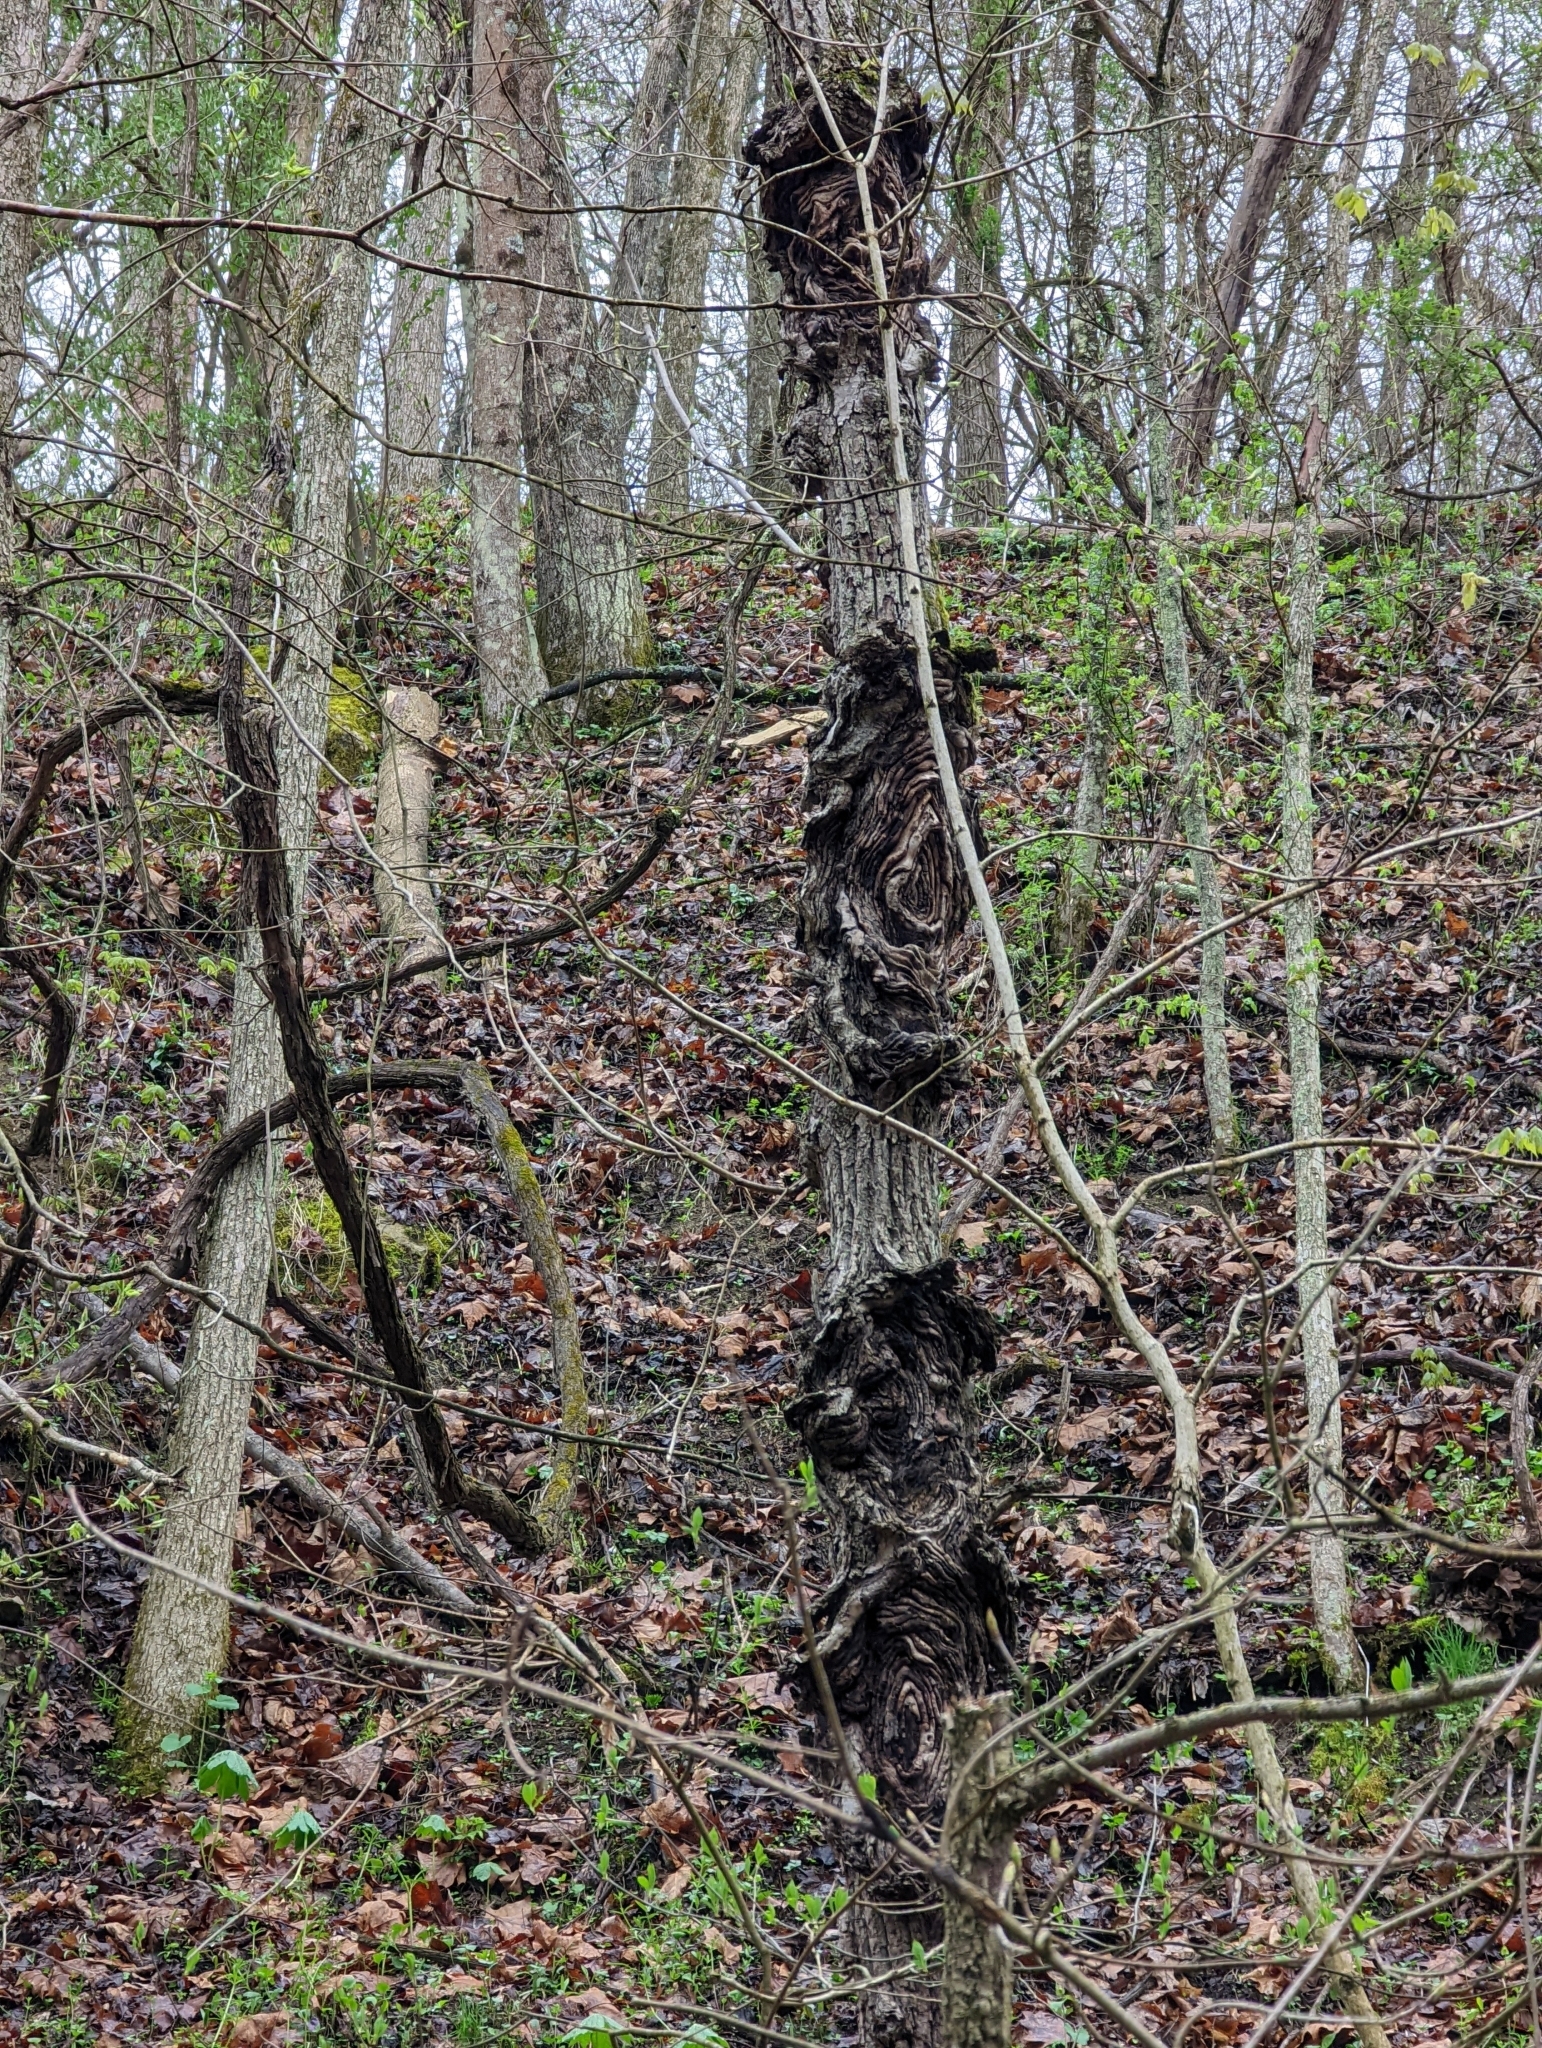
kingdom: Fungi
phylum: Ascomycota
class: Sordariomycetes
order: Hypocreales
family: Nectriaceae
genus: Neonectria
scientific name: Neonectria ditissima
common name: Apple canker
